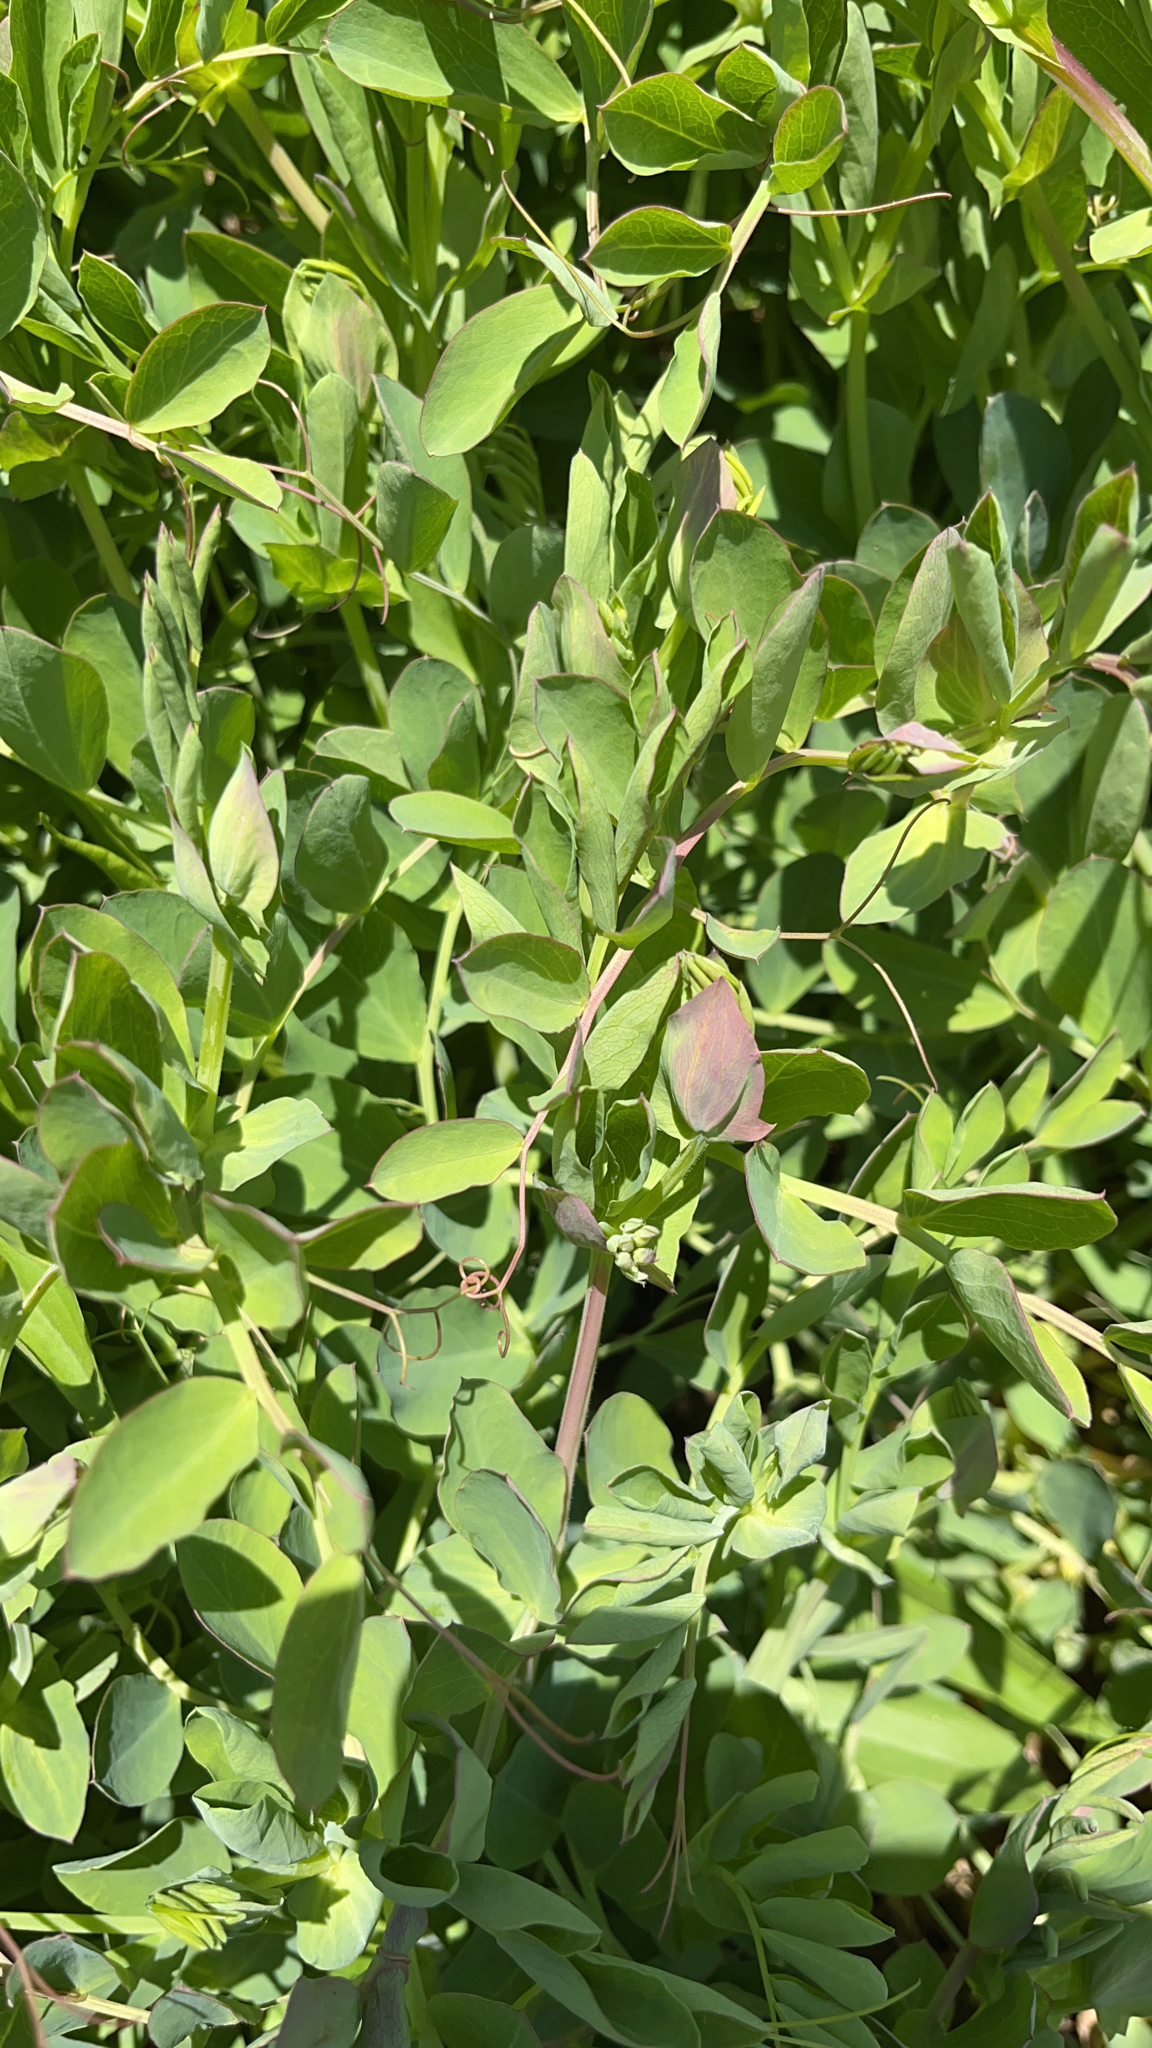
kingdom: Plantae
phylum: Tracheophyta
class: Magnoliopsida
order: Fabales
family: Fabaceae
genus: Lathyrus
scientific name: Lathyrus japonicus
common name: Sea pea
